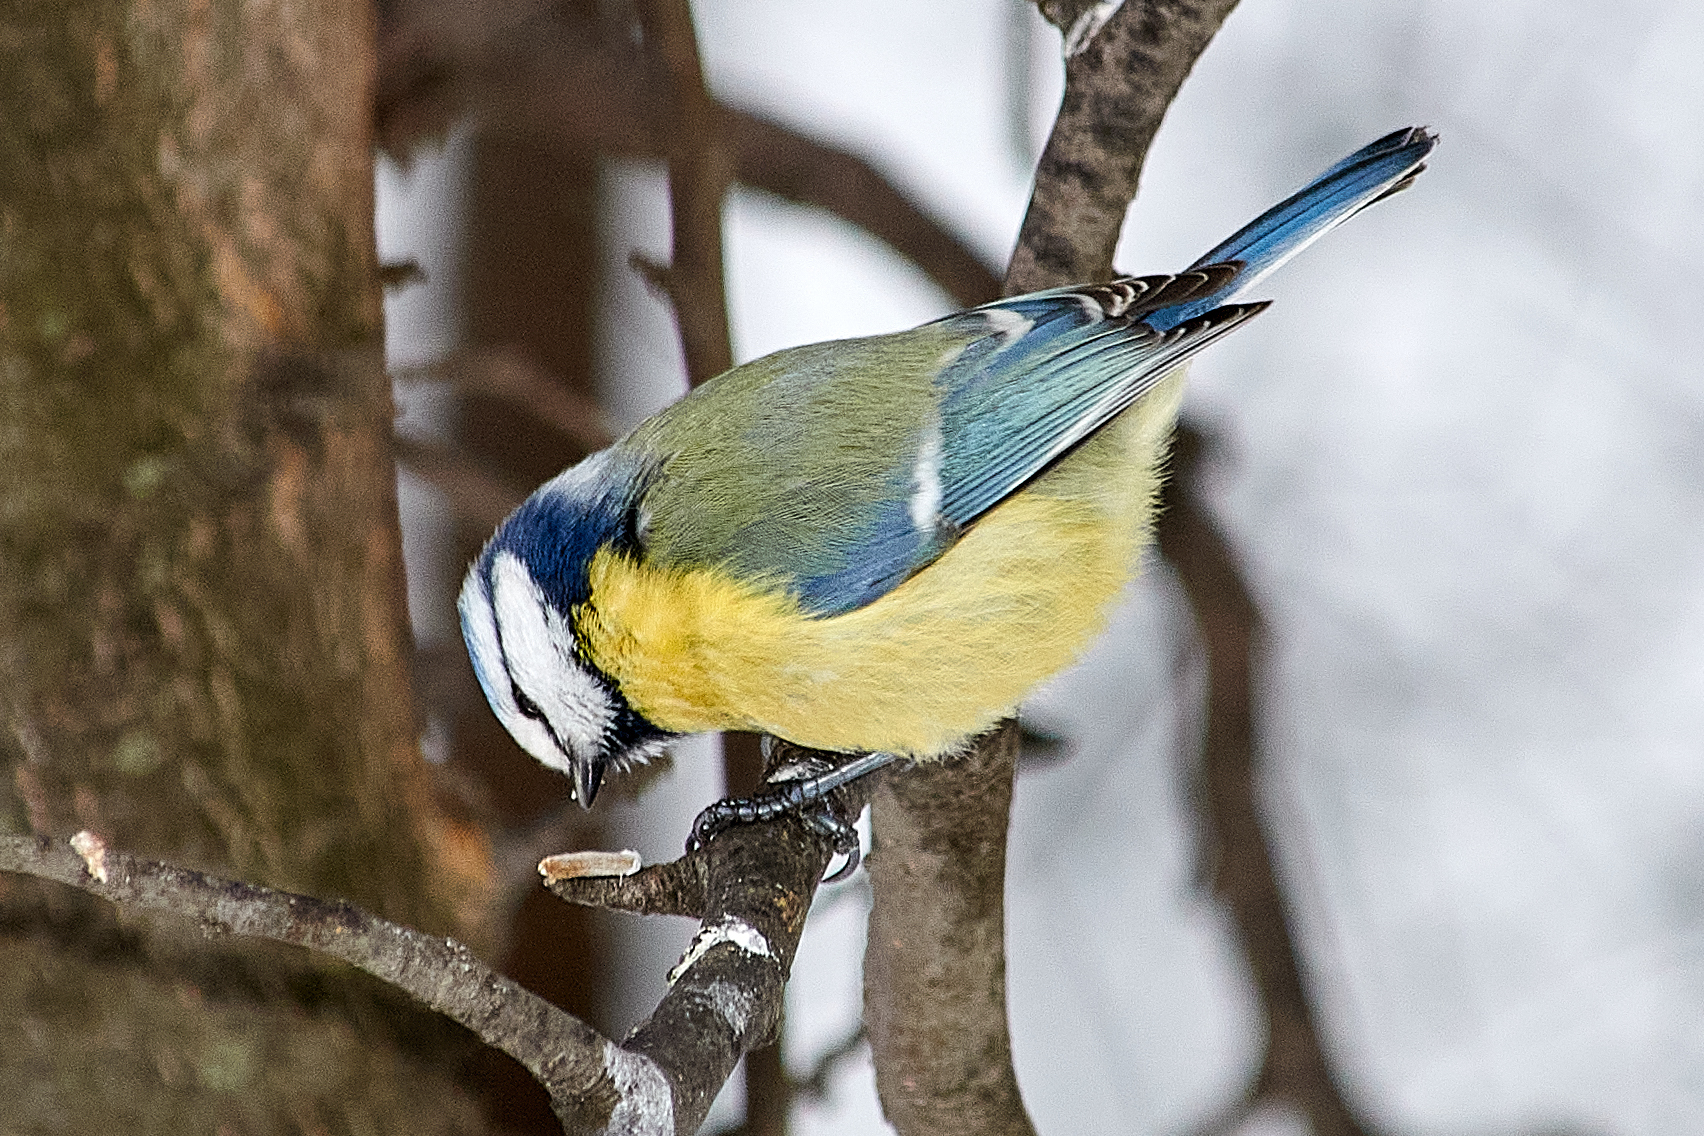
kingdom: Animalia
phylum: Chordata
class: Aves
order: Passeriformes
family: Paridae
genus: Cyanistes
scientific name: Cyanistes caeruleus
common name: Eurasian blue tit
